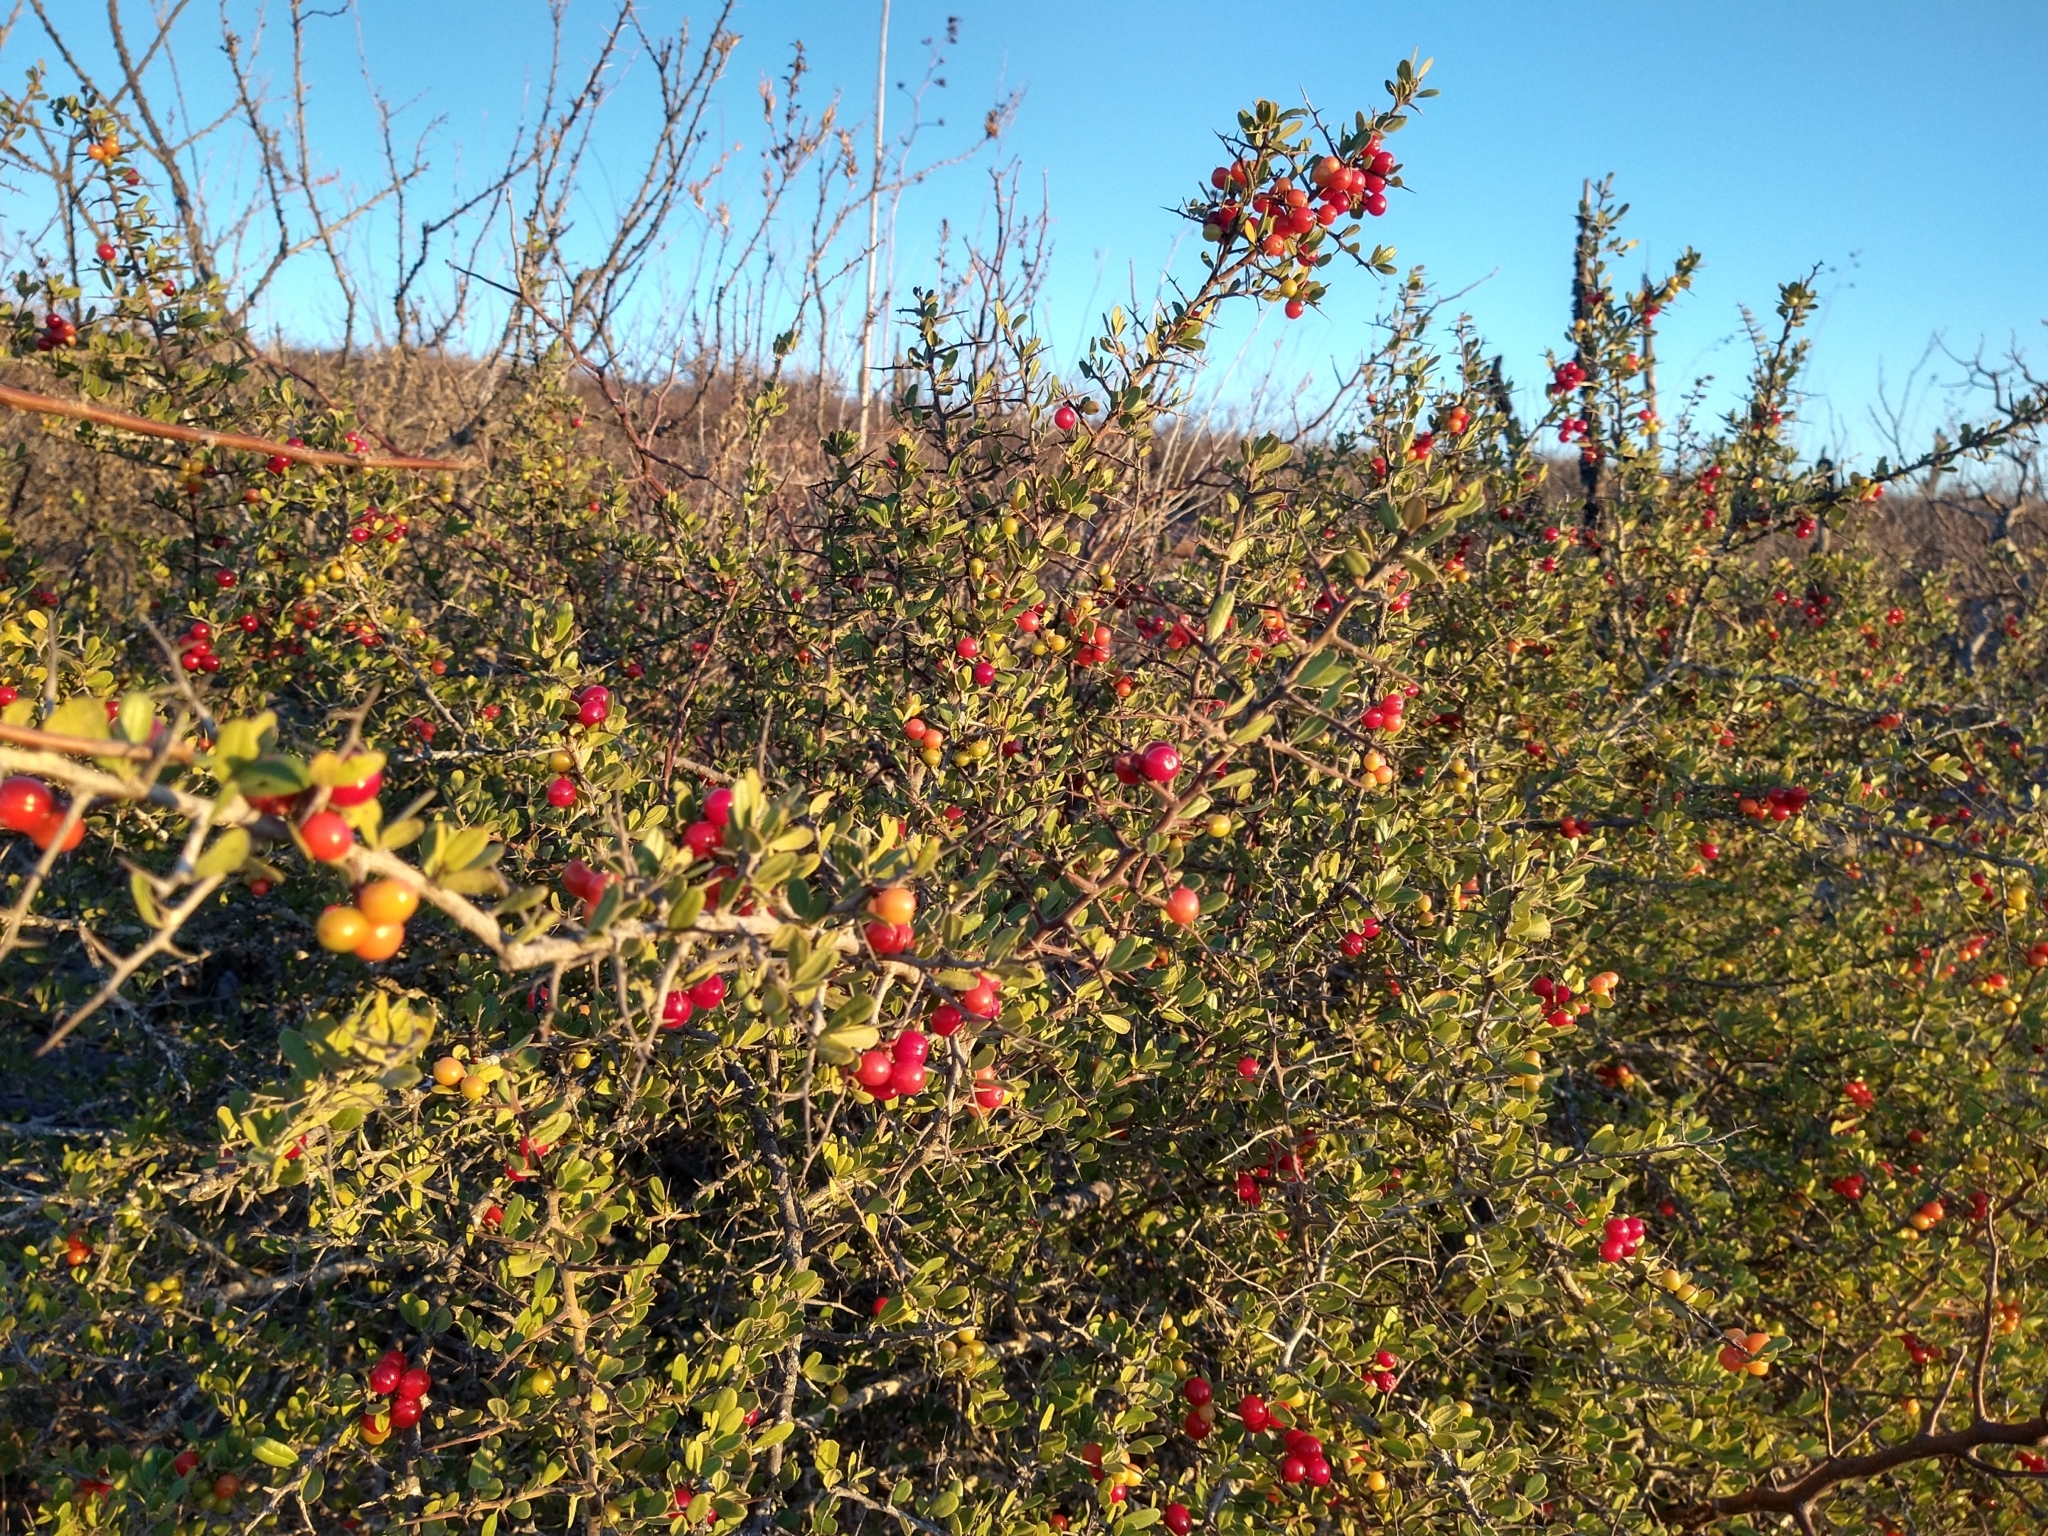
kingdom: Plantae
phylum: Tracheophyta
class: Magnoliopsida
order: Sapindales
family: Simaroubaceae
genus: Castela
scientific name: Castela peninsularis
